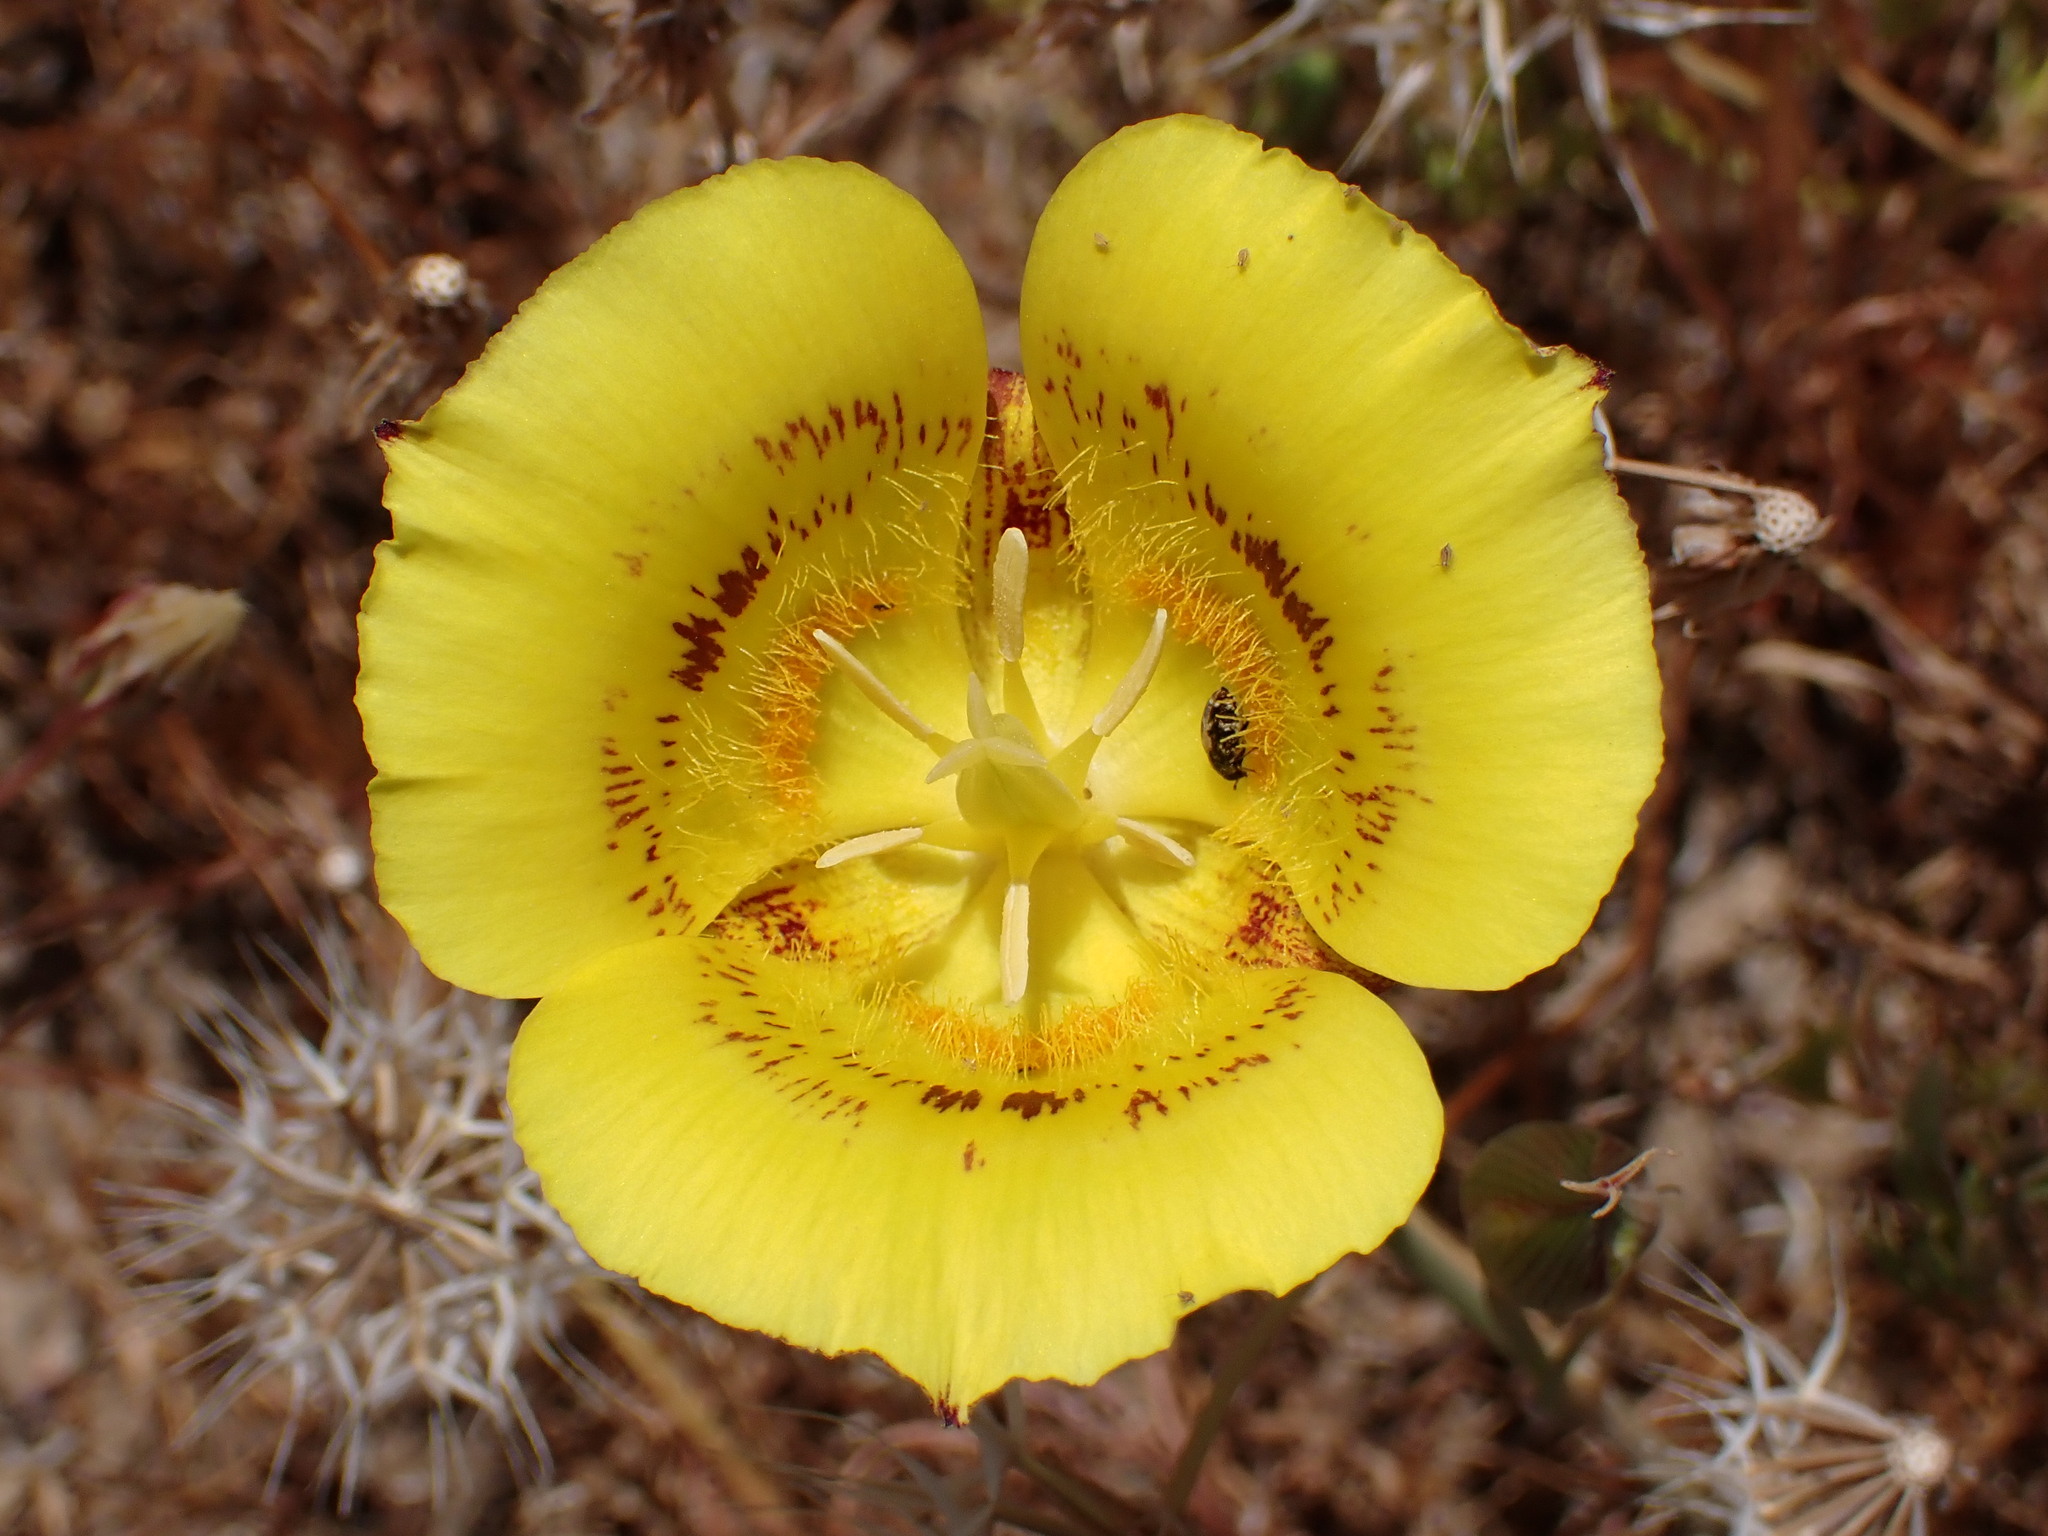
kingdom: Plantae
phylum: Tracheophyta
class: Liliopsida
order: Liliales
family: Liliaceae
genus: Calochortus
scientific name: Calochortus luteus
